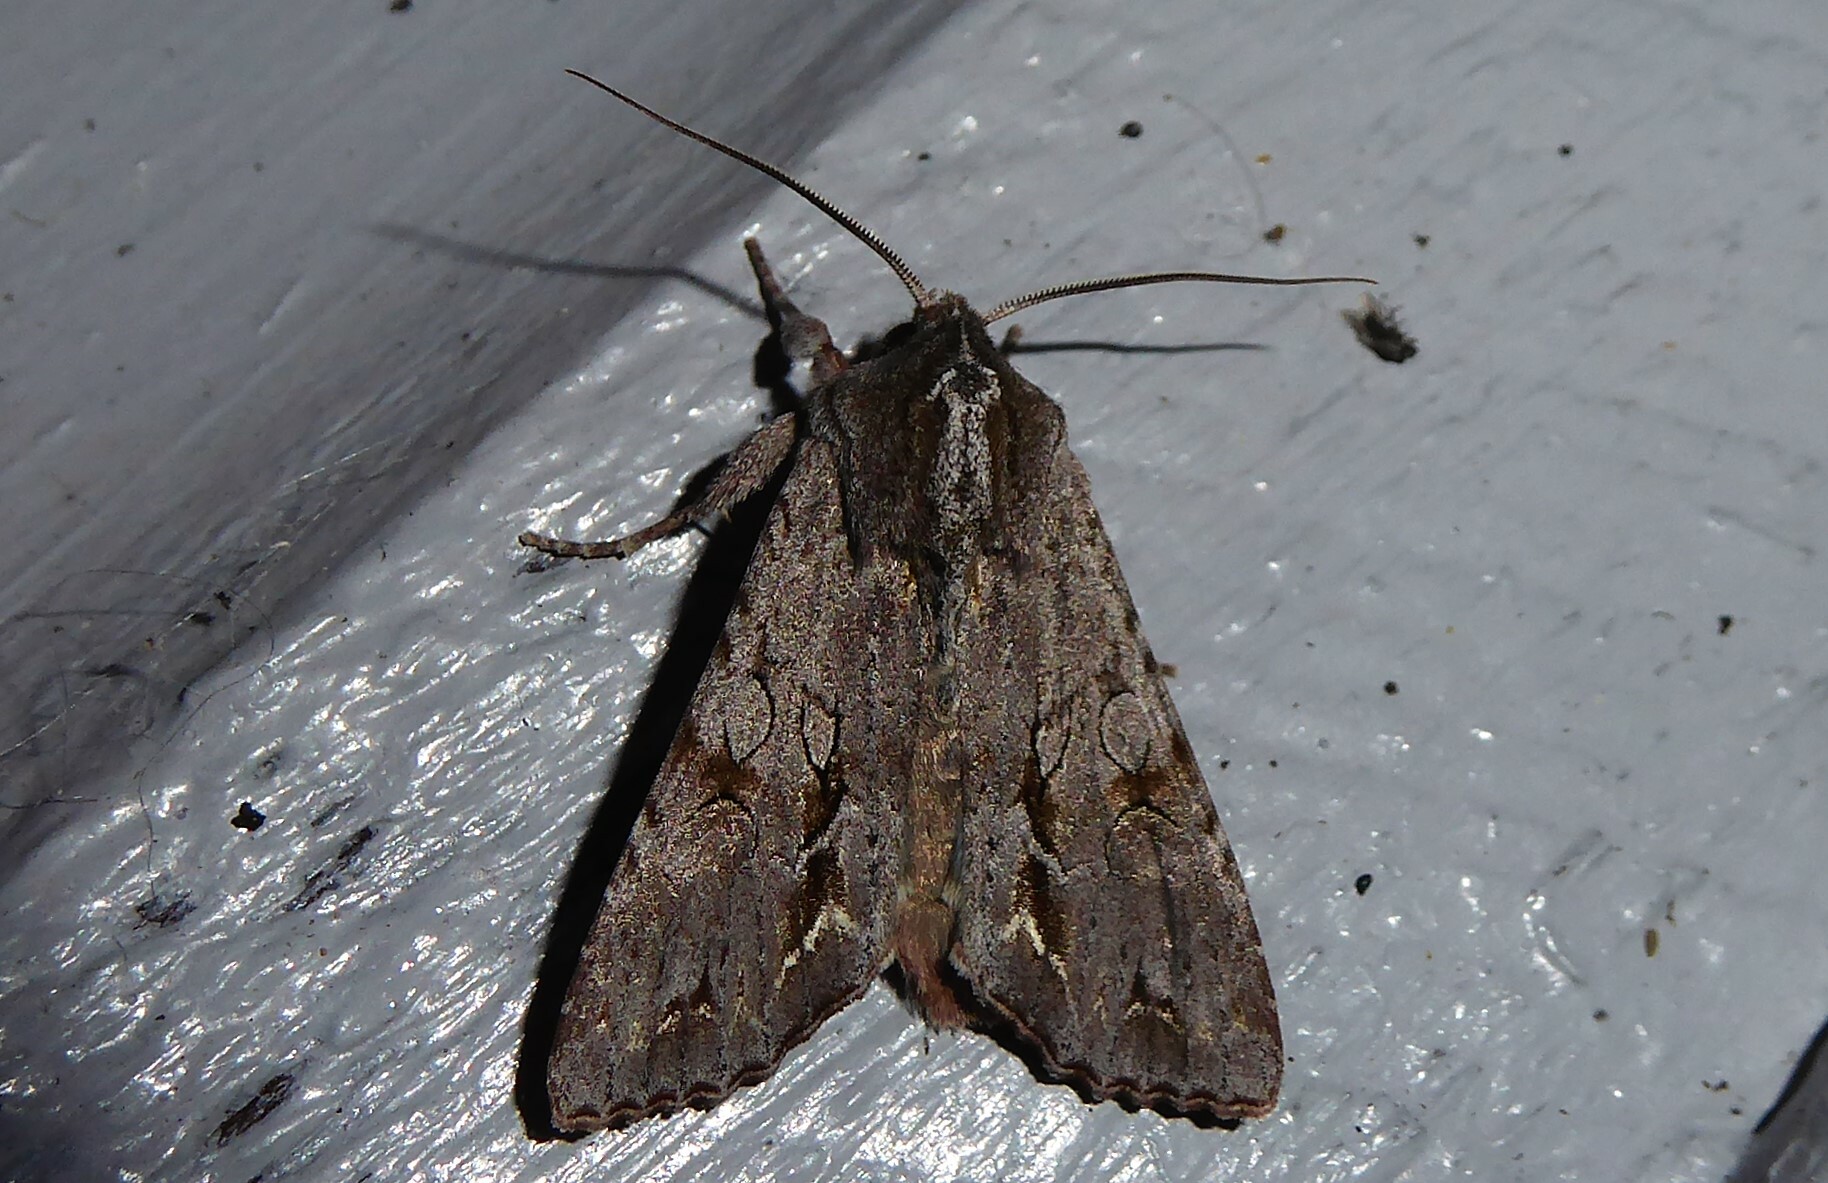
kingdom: Animalia
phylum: Arthropoda
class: Insecta
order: Lepidoptera
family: Noctuidae
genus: Ichneutica
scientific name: Ichneutica
